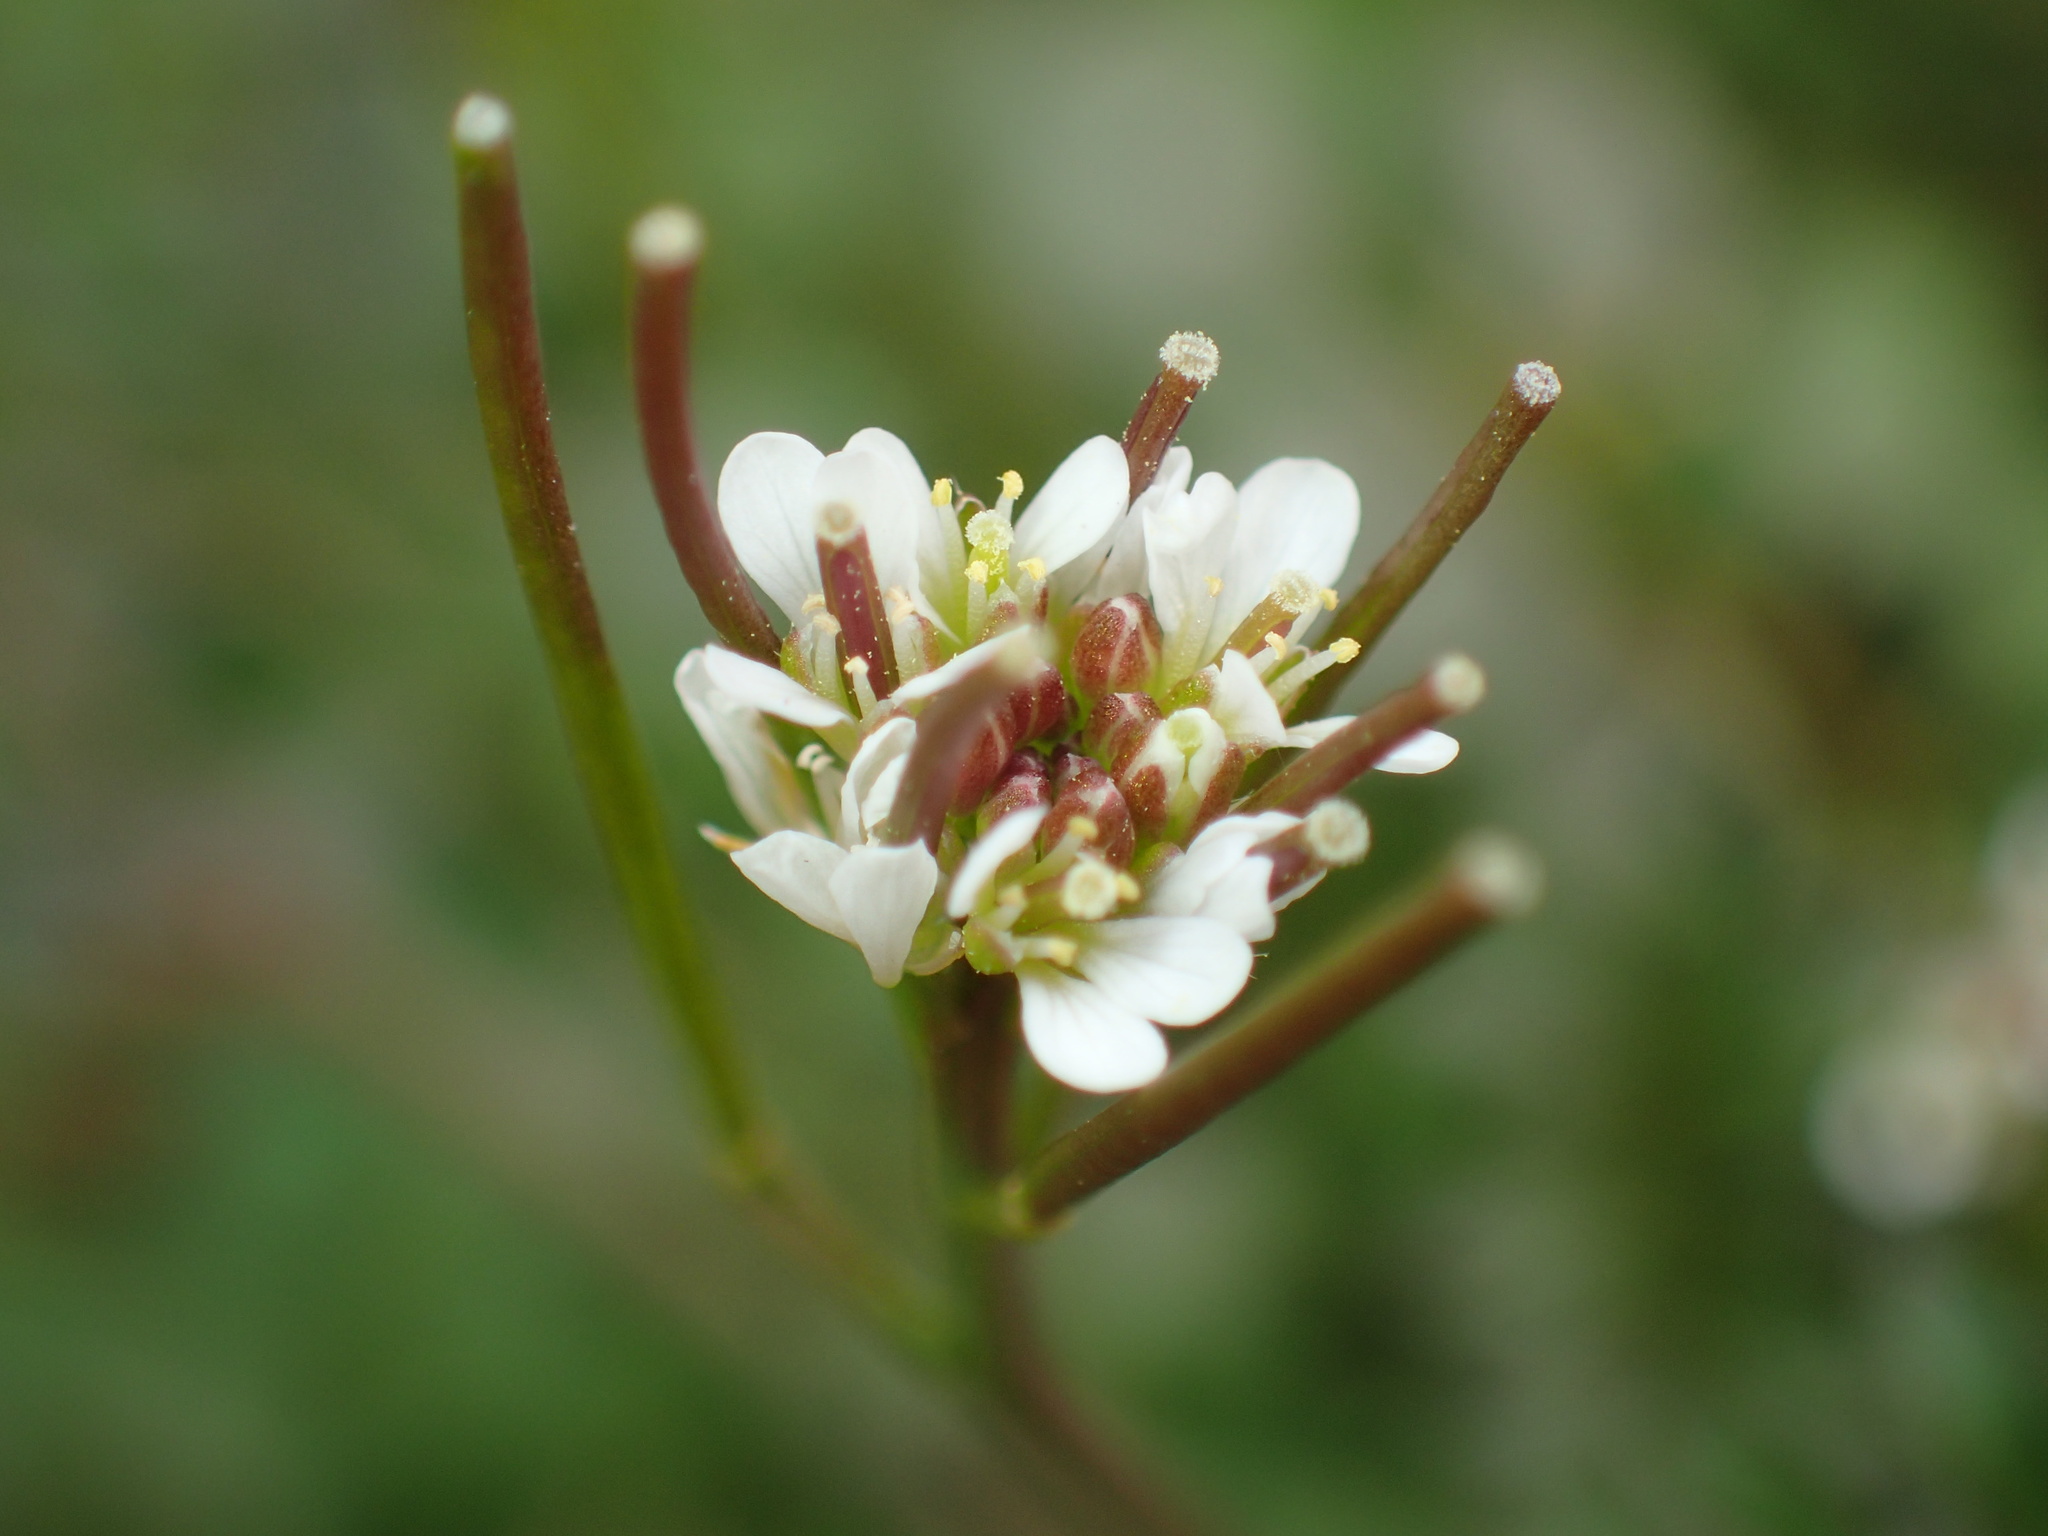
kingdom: Plantae
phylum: Tracheophyta
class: Magnoliopsida
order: Brassicales
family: Brassicaceae
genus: Cardamine
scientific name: Cardamine hirsuta
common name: Hairy bittercress
